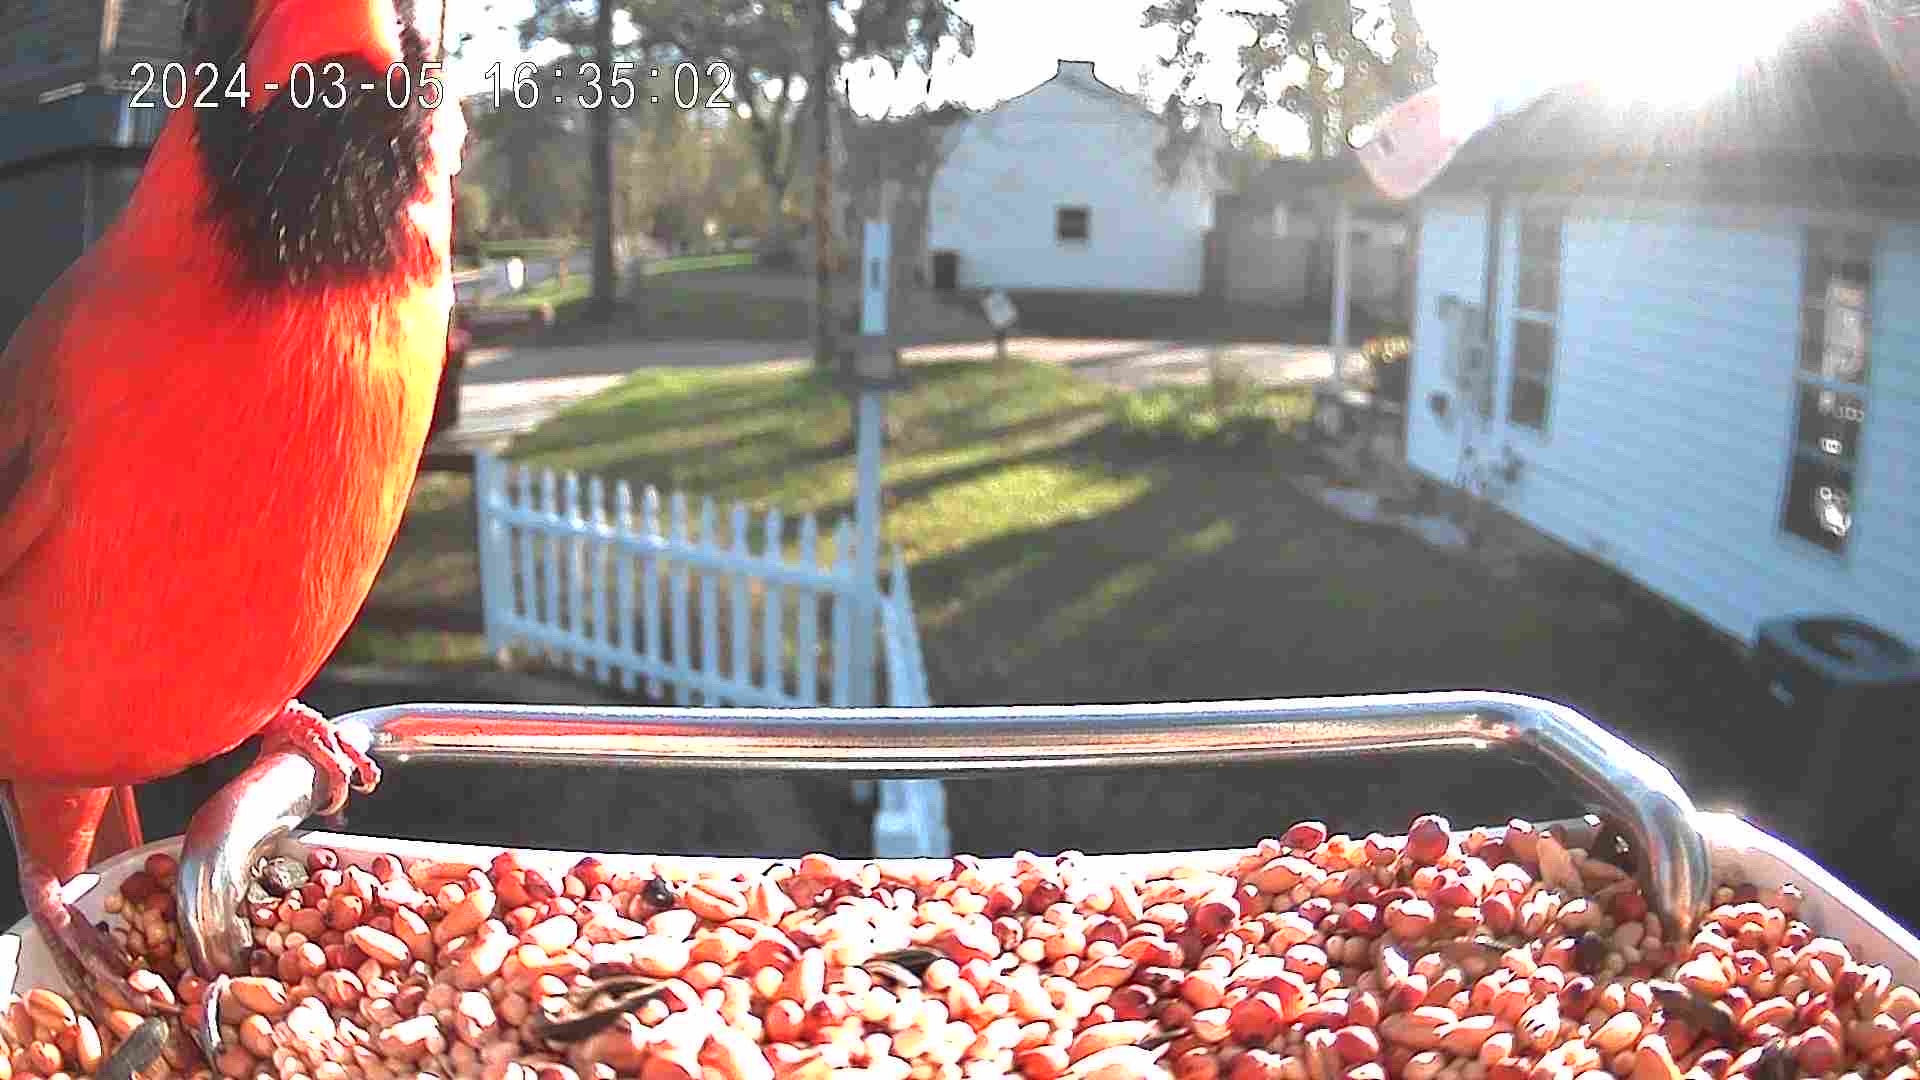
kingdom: Animalia
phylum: Chordata
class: Aves
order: Passeriformes
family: Cardinalidae
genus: Cardinalis
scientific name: Cardinalis cardinalis
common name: Northern cardinal
